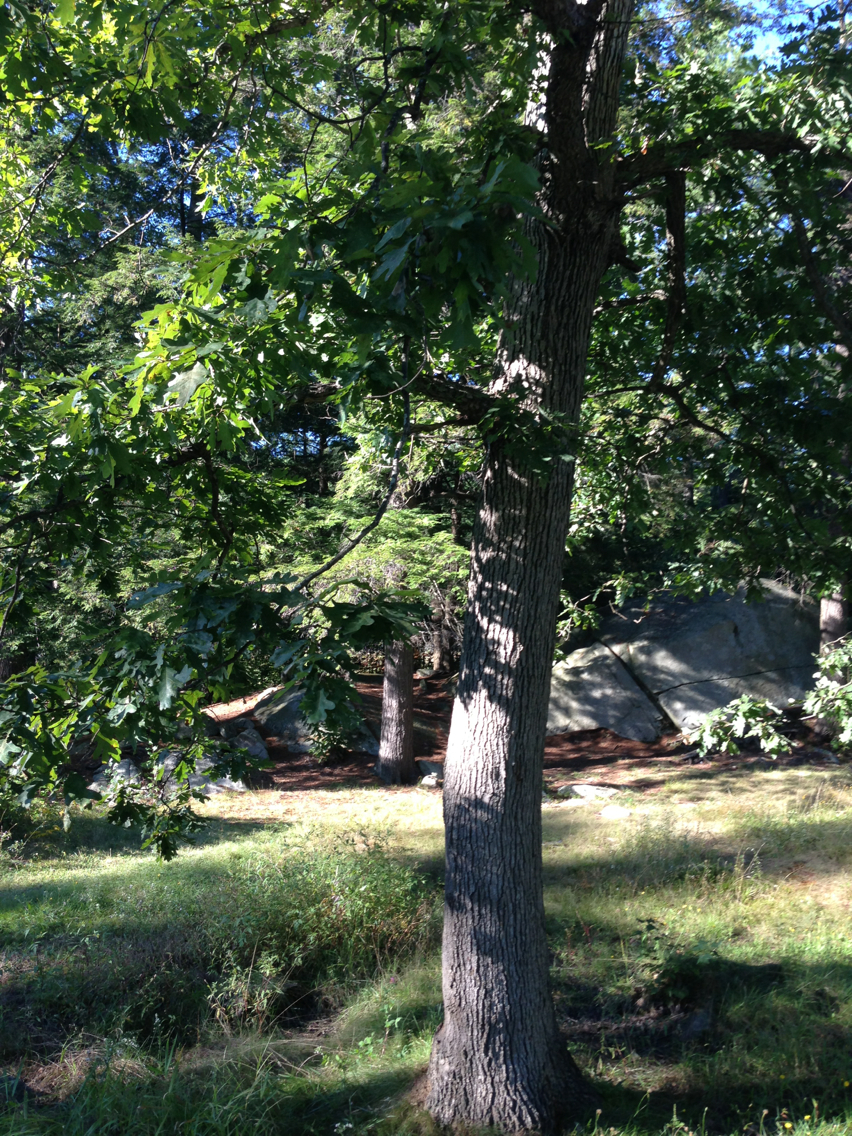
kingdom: Plantae
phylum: Tracheophyta
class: Magnoliopsida
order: Fagales
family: Fagaceae
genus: Quercus
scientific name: Quercus alba
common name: White oak
